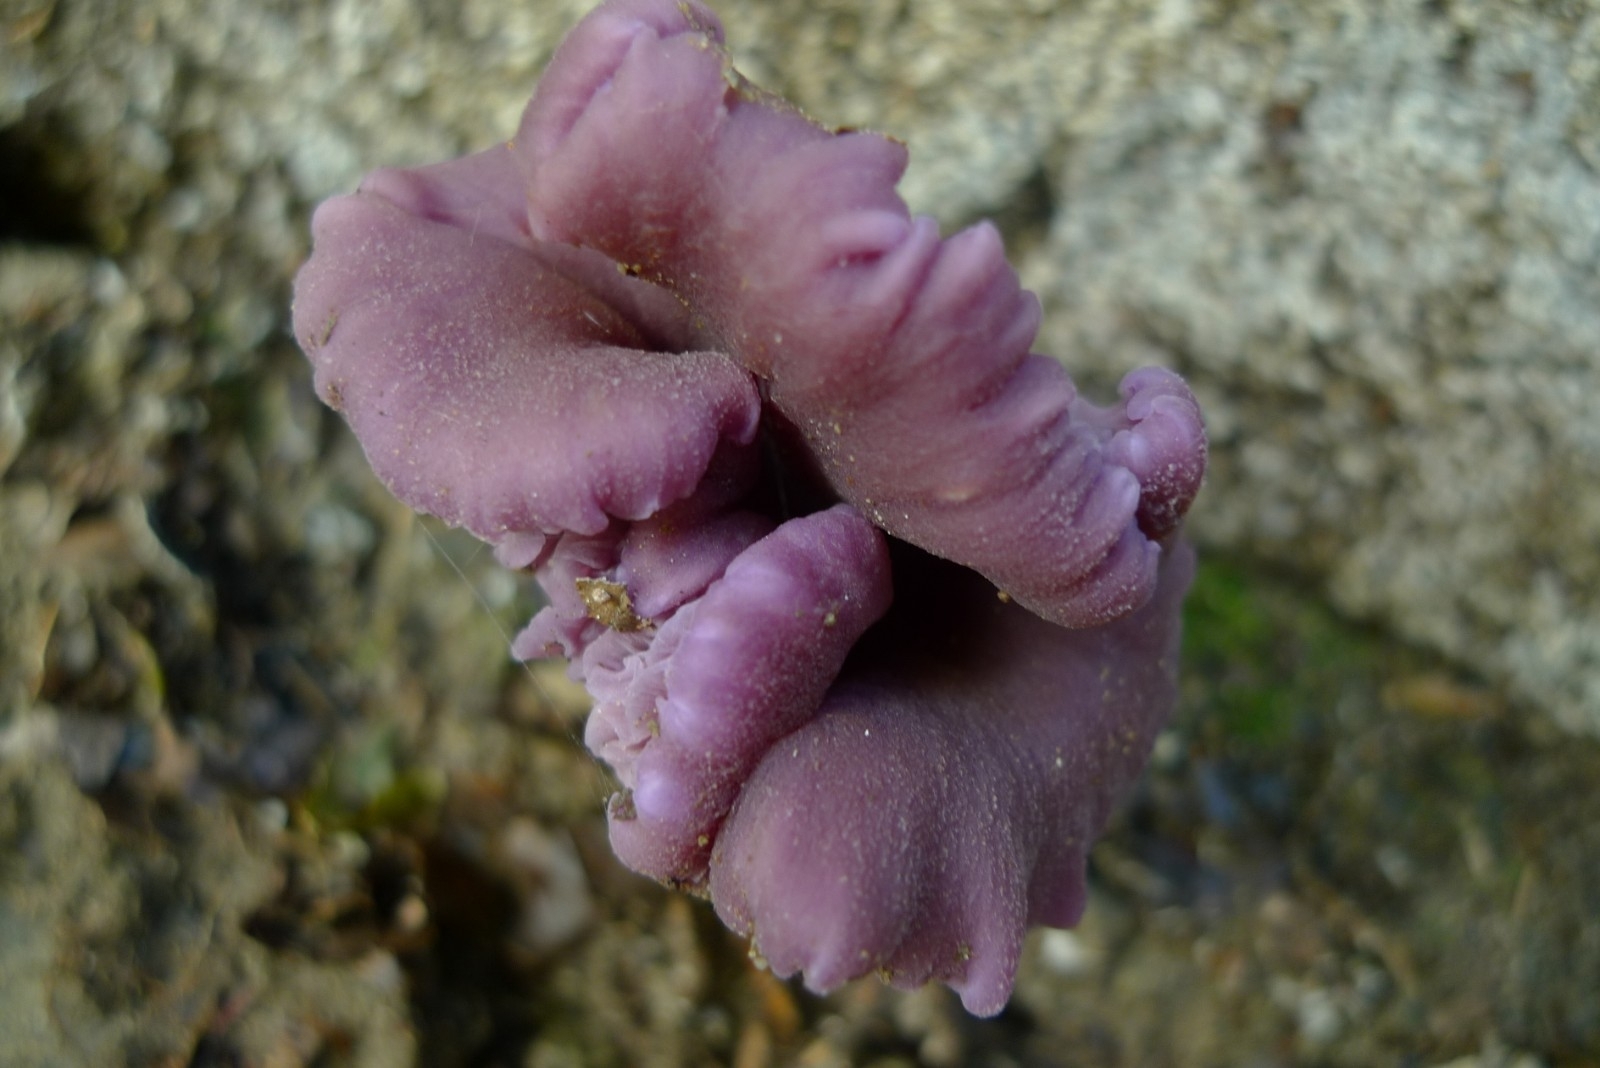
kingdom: Fungi
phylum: Basidiomycota
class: Agaricomycetes
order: Agaricales
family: Hydnangiaceae
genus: Laccaria
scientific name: Laccaria amethystina
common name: Amethyst deceiver
